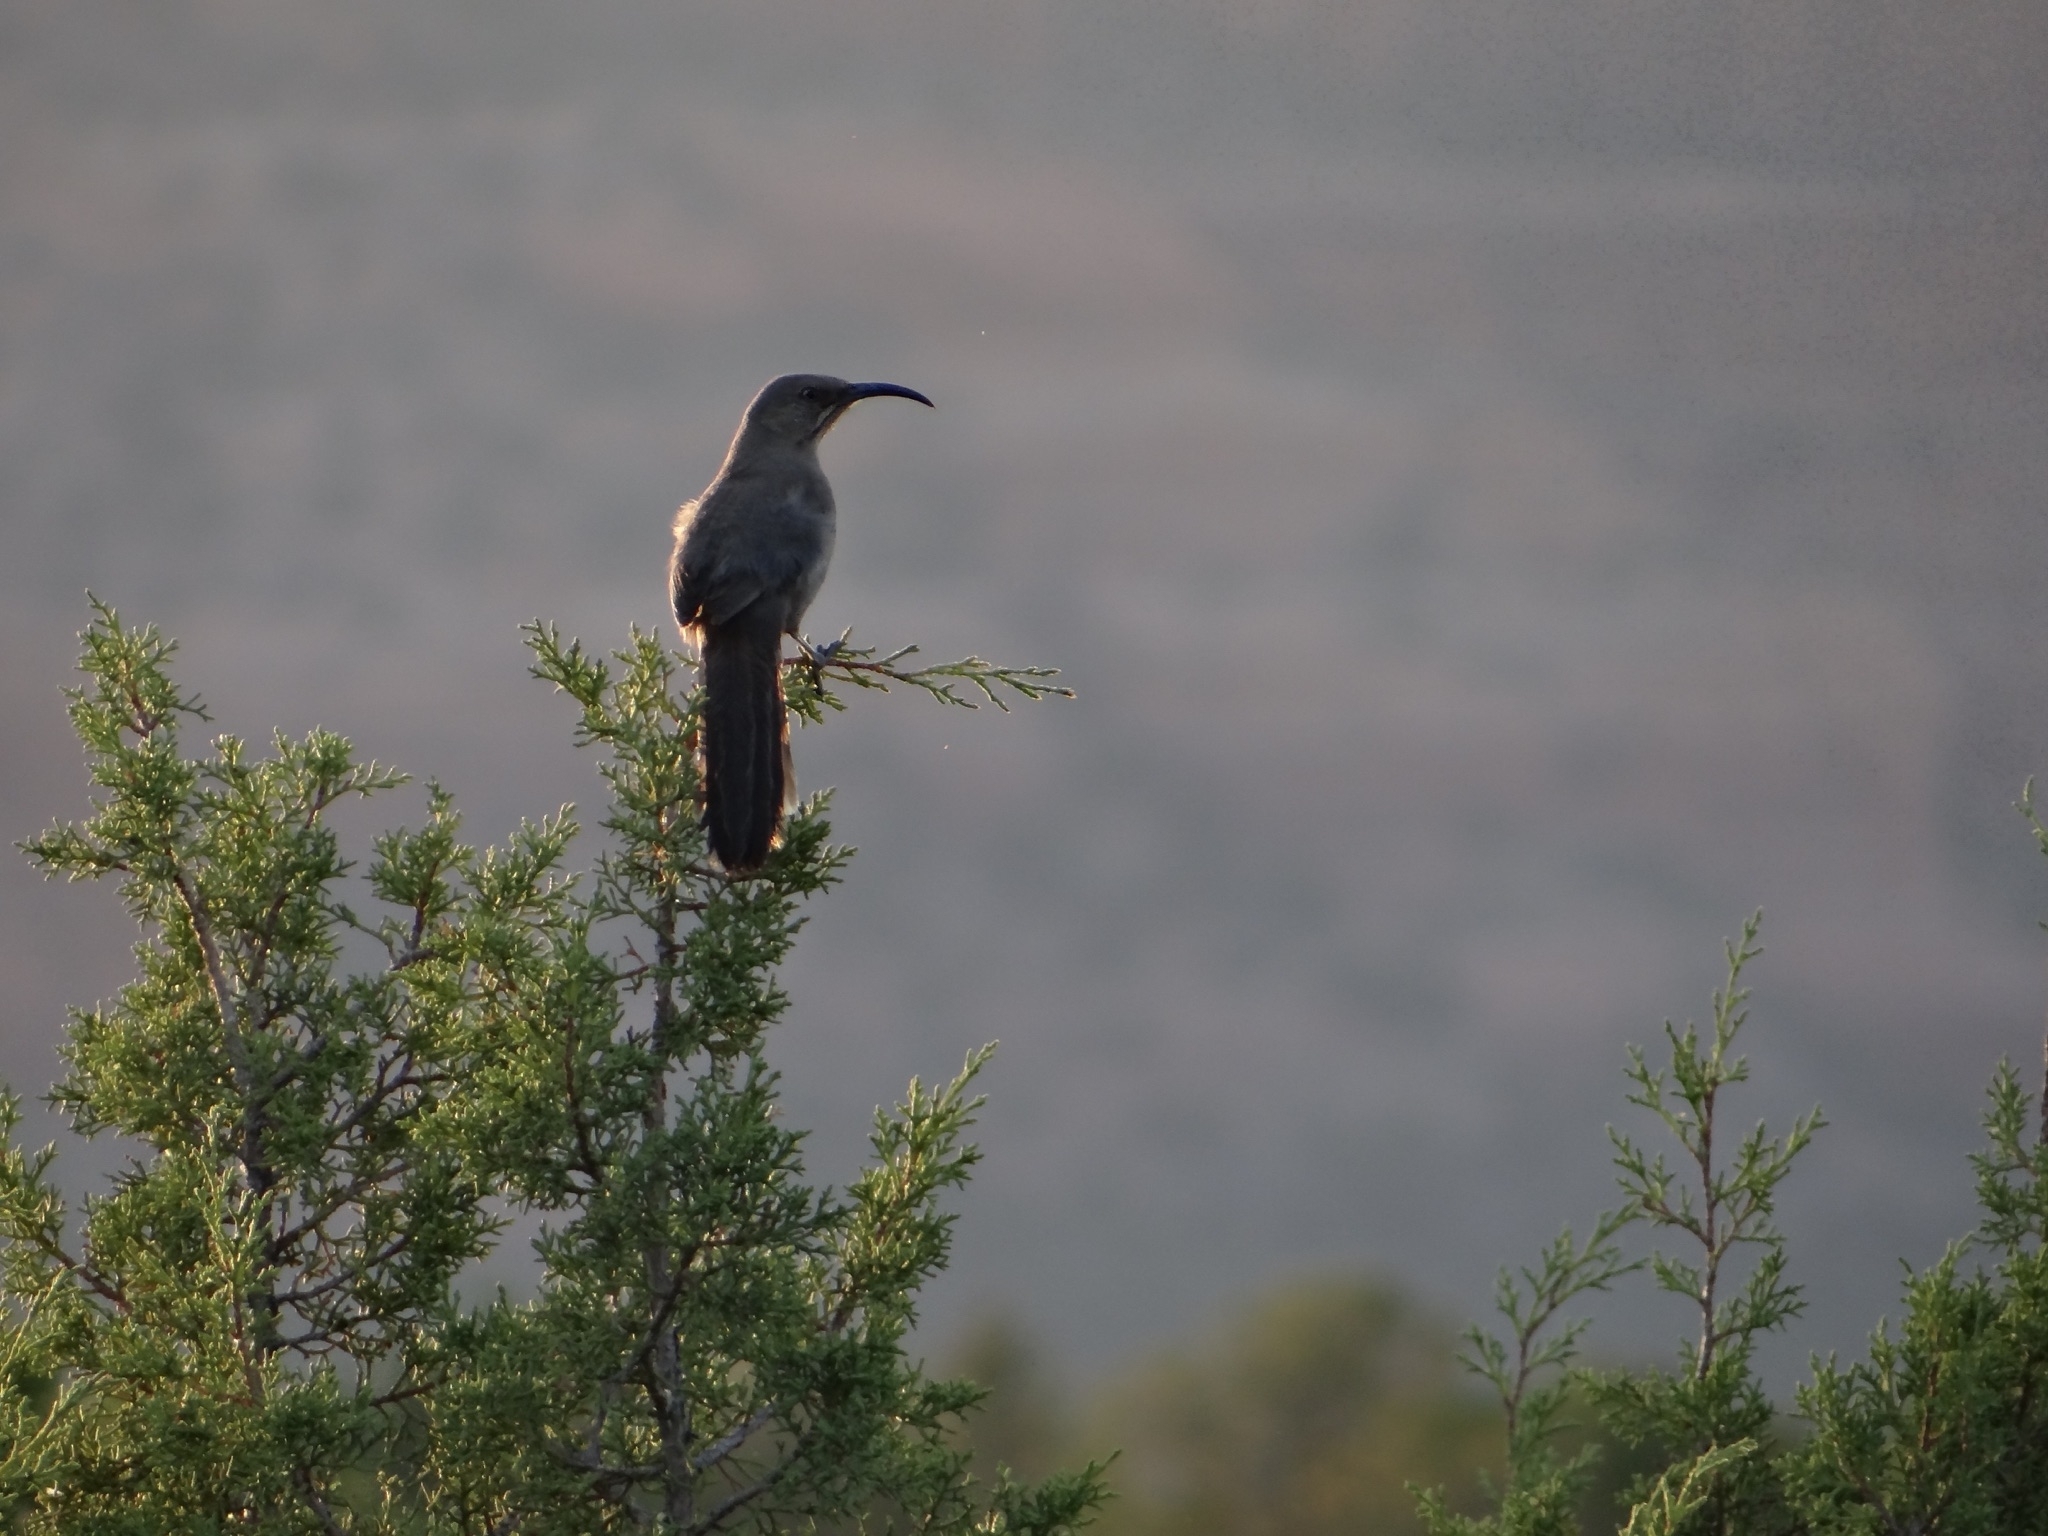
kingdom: Animalia
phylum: Chordata
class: Aves
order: Passeriformes
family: Mimidae
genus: Toxostoma
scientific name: Toxostoma crissale
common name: Crissal thrasher
